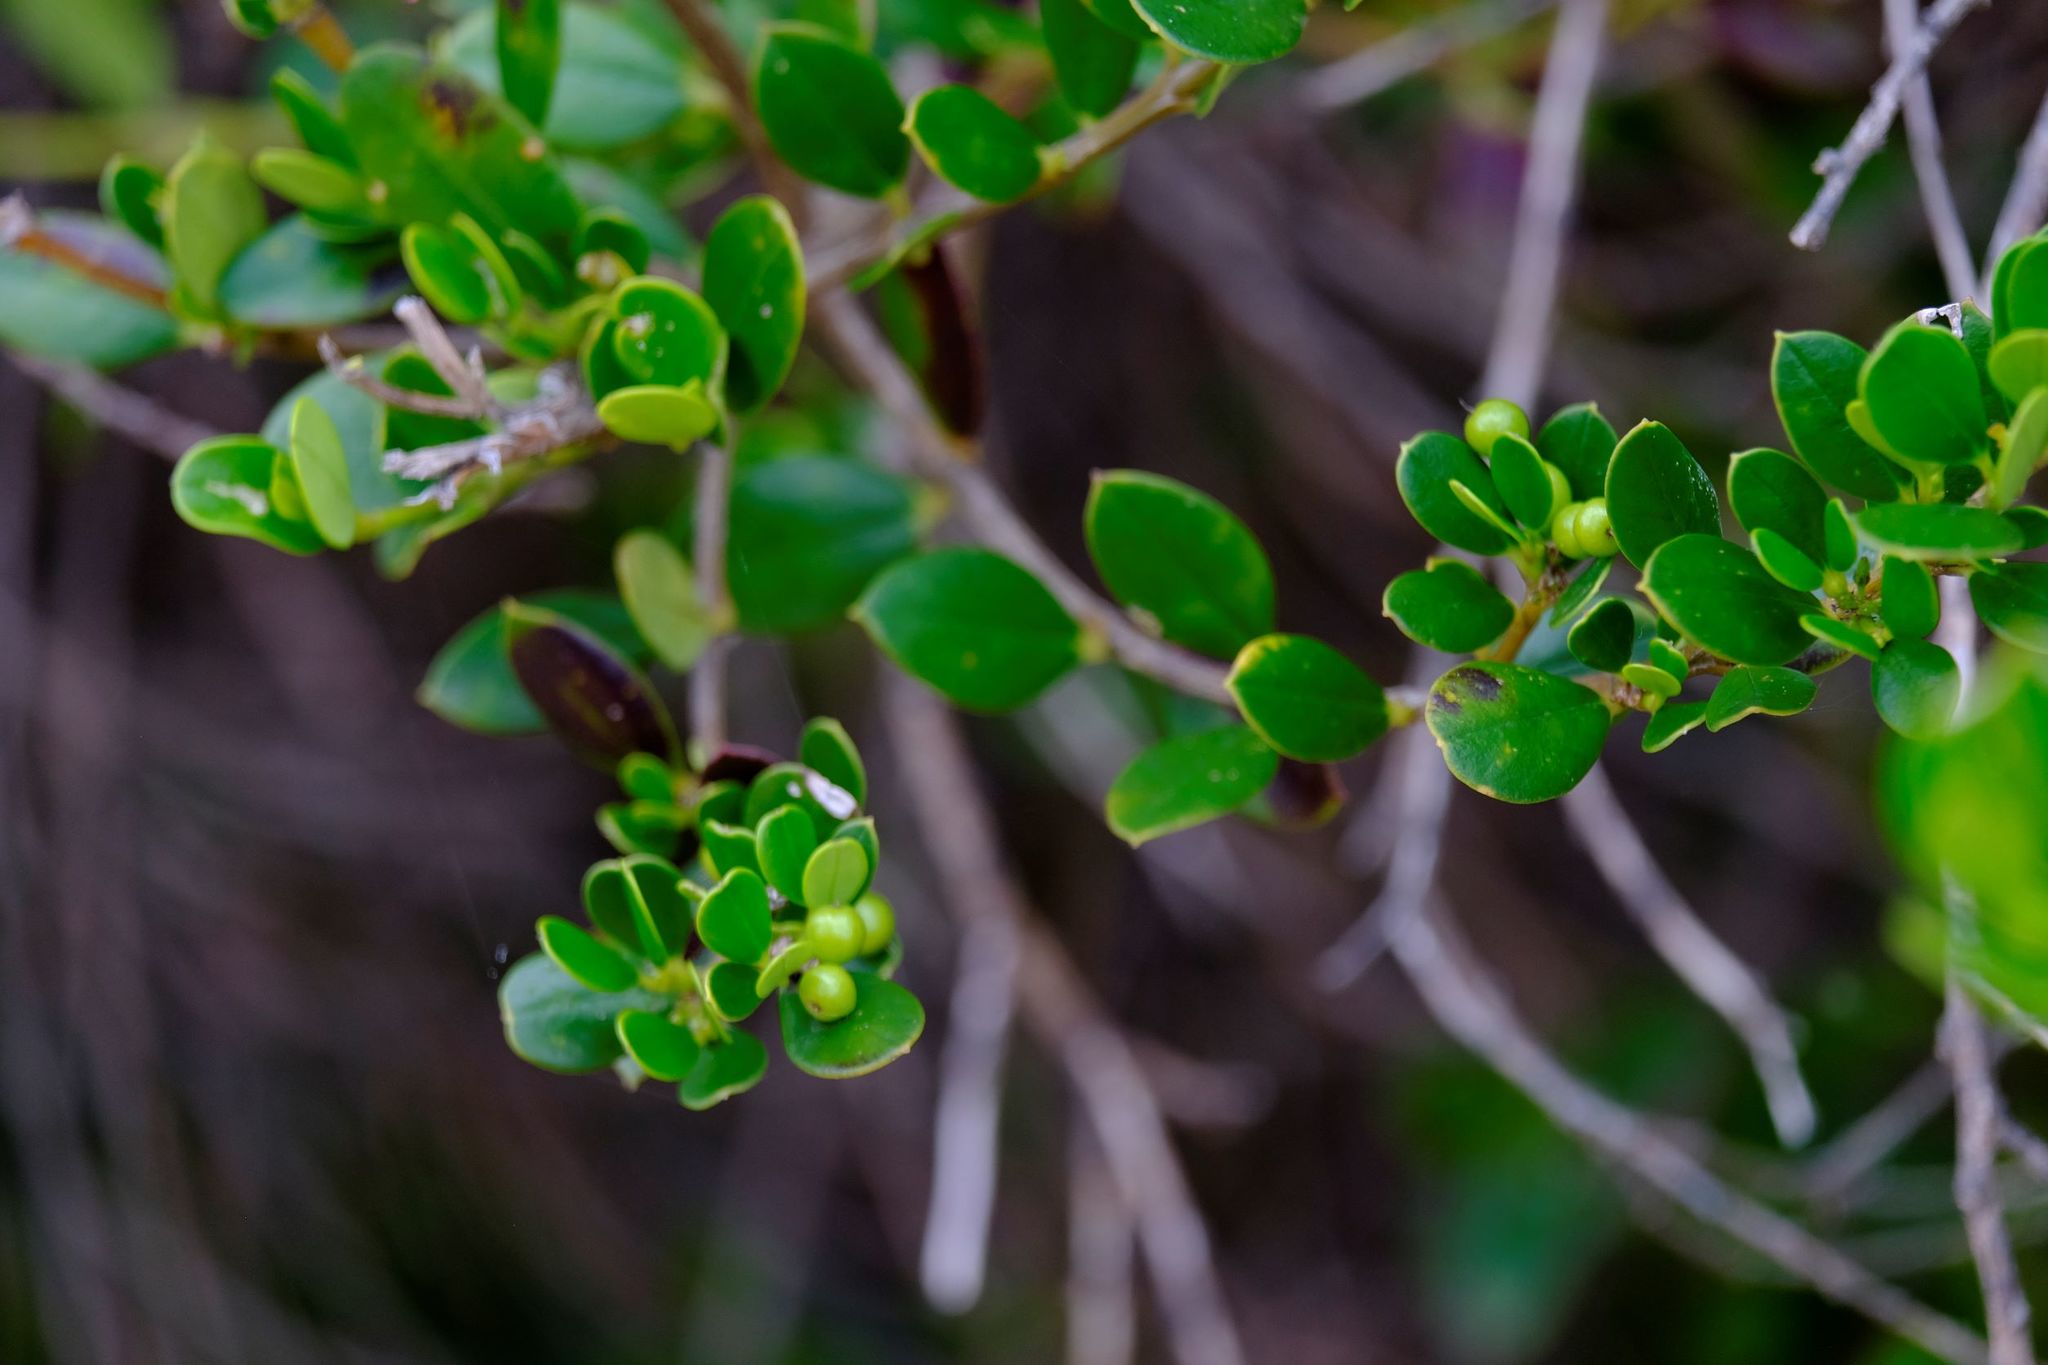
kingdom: Plantae
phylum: Tracheophyta
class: Magnoliopsida
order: Gentianales
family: Apocynaceae
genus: Alyxia
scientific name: Alyxia buxifolia
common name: Dysentery-bush
